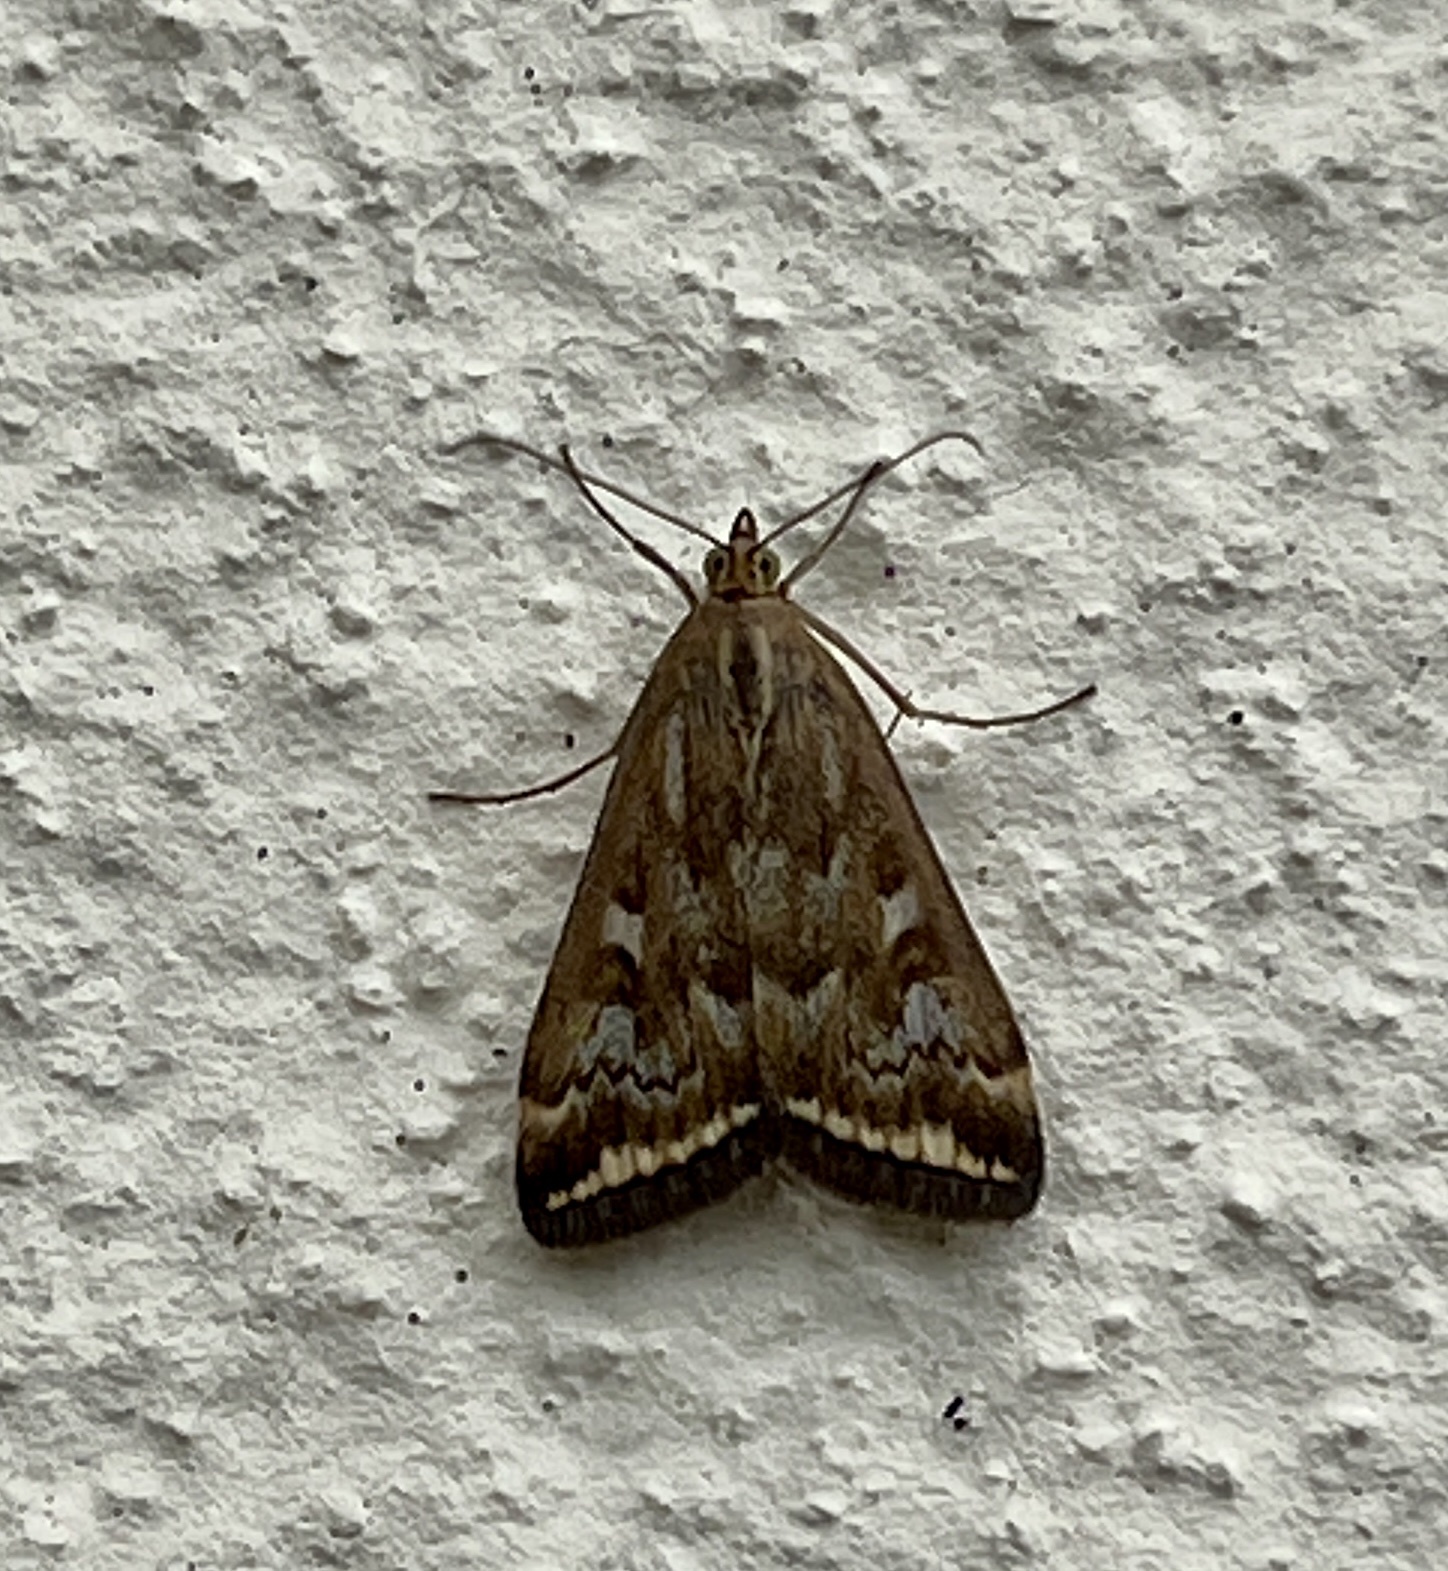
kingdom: Animalia
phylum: Arthropoda
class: Insecta
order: Lepidoptera
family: Crambidae
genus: Loxostege
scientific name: Loxostege sticticalis
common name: Crambid moth
